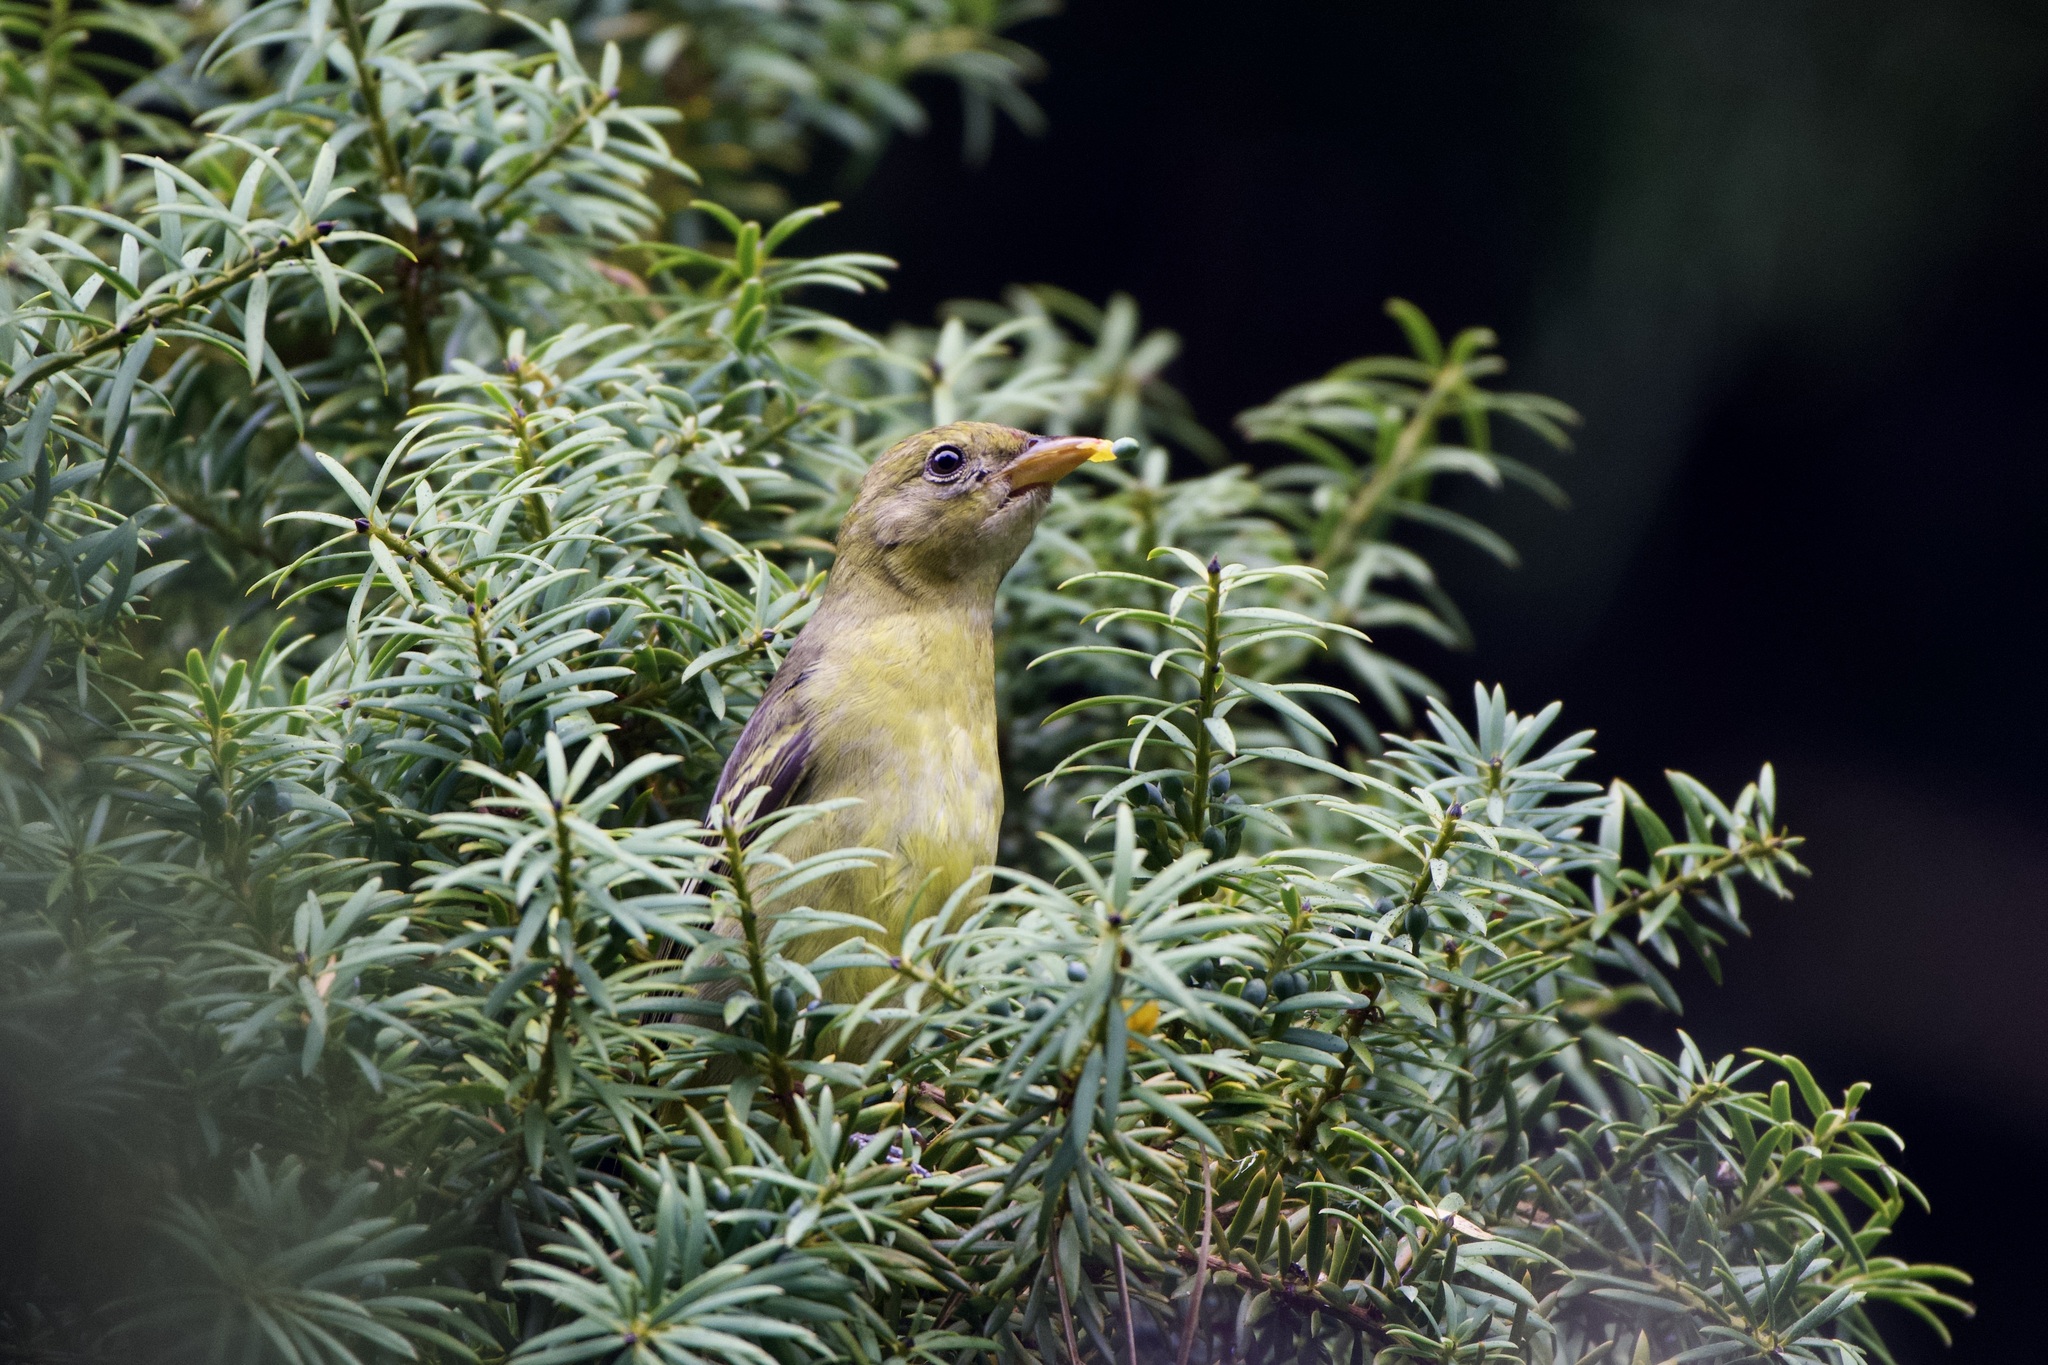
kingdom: Animalia
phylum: Chordata
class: Aves
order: Passeriformes
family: Cardinalidae
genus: Piranga
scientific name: Piranga ludoviciana
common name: Western tanager
